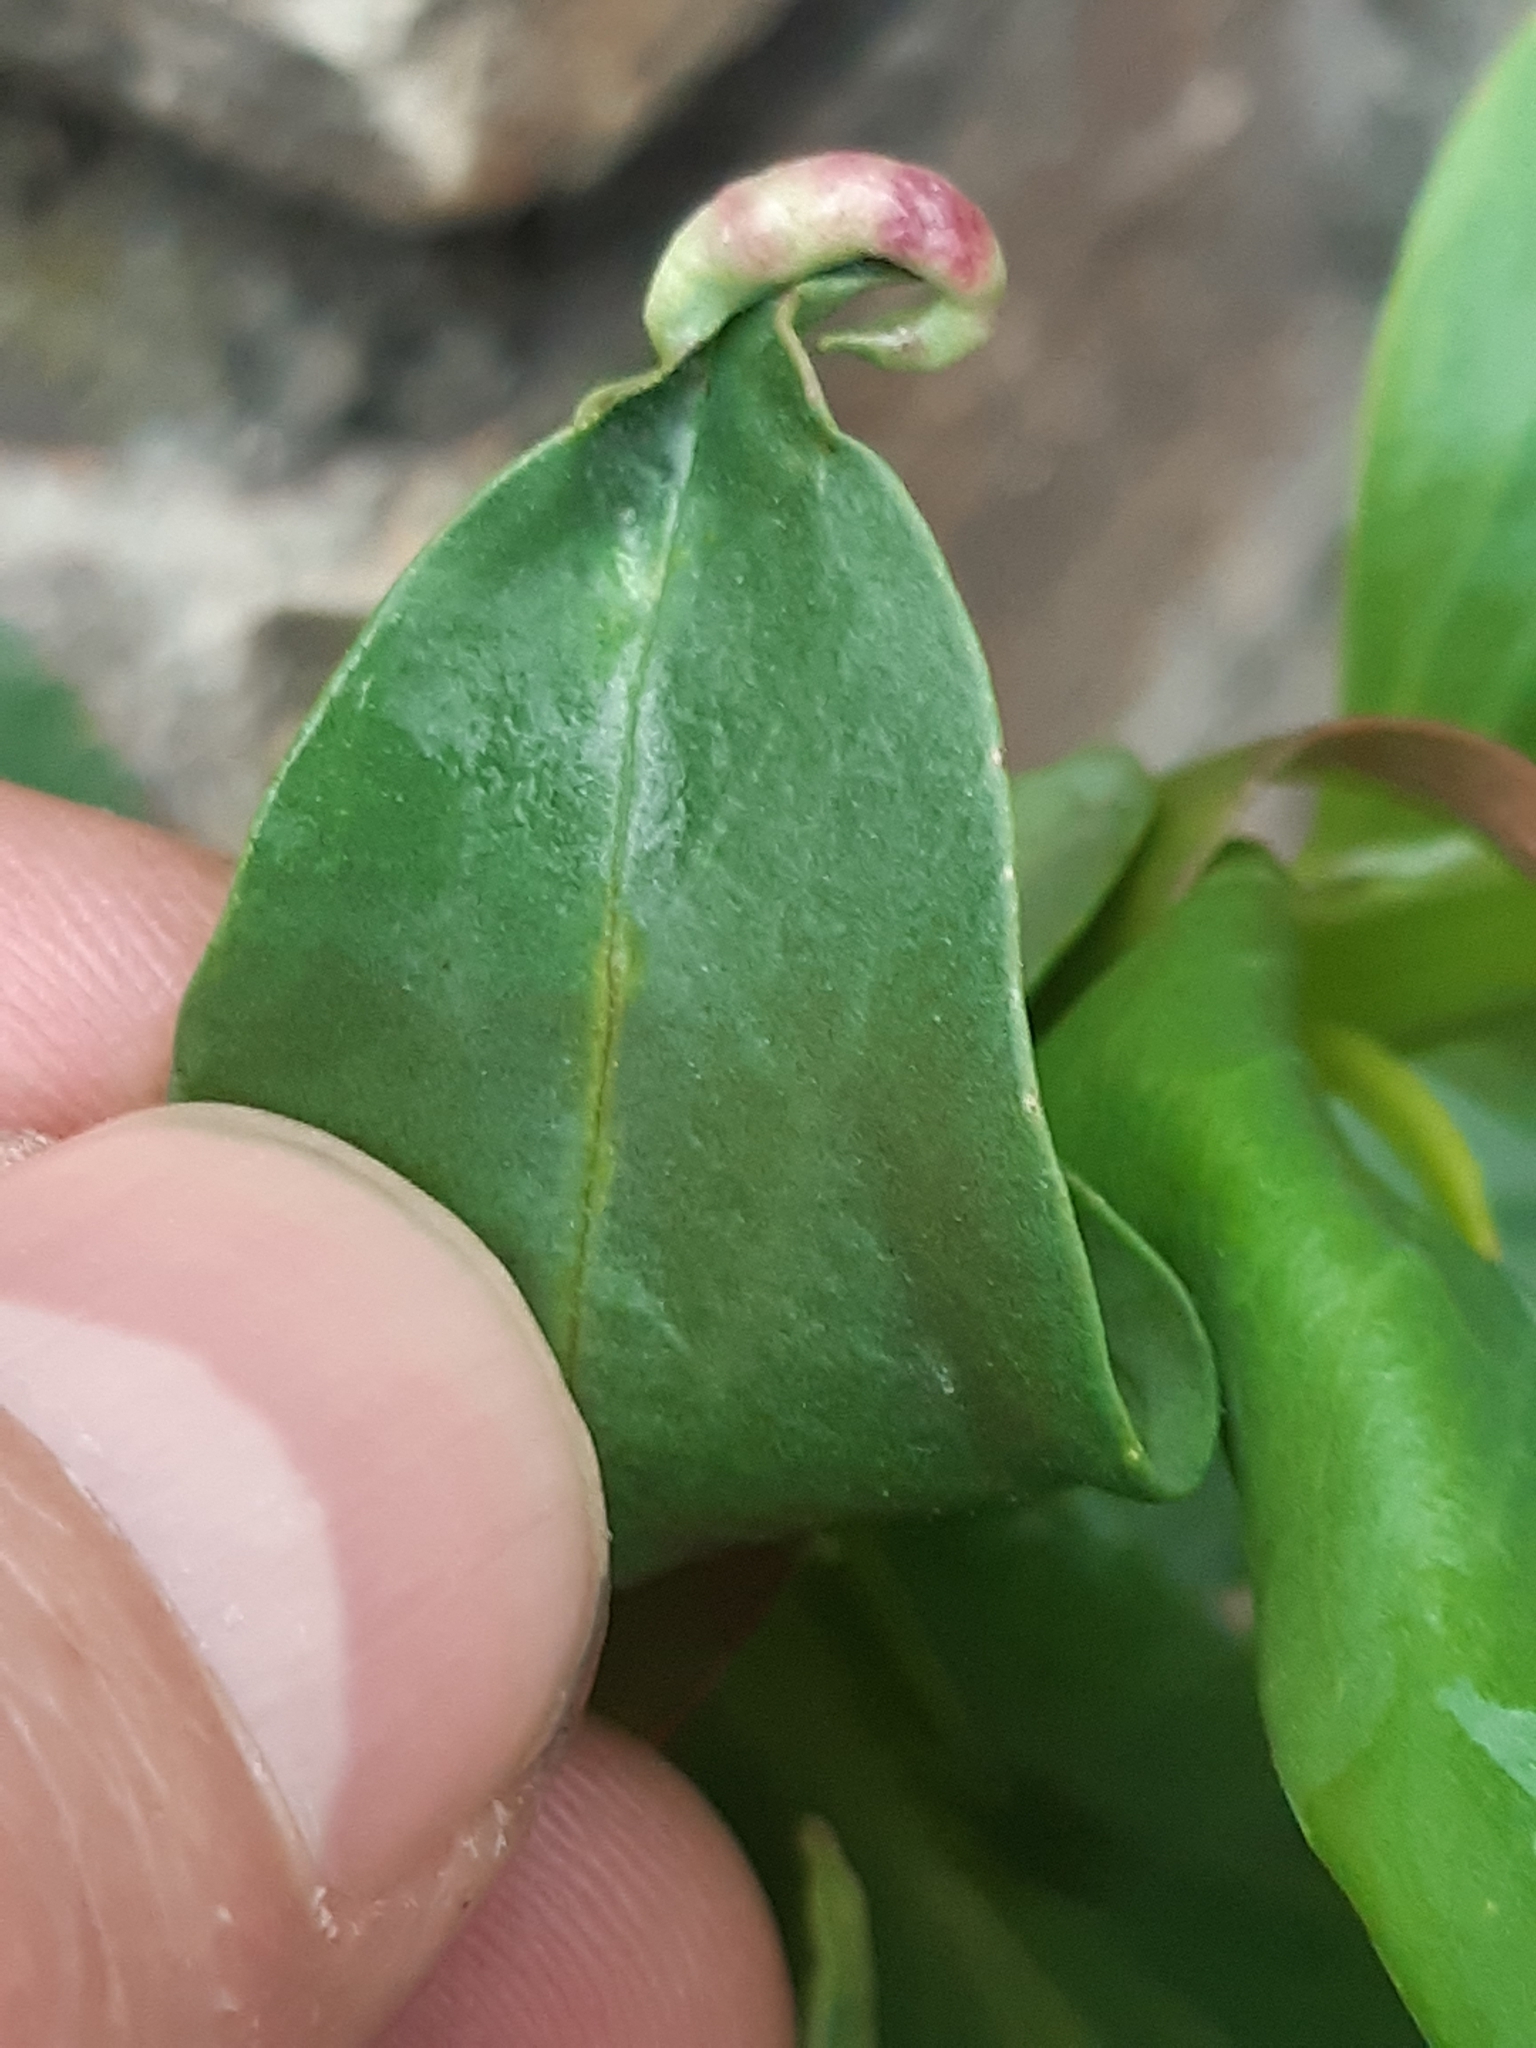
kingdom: Animalia
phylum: Arthropoda
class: Insecta
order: Hemiptera
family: Triozidae
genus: Trioza
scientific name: Trioza centranthi
